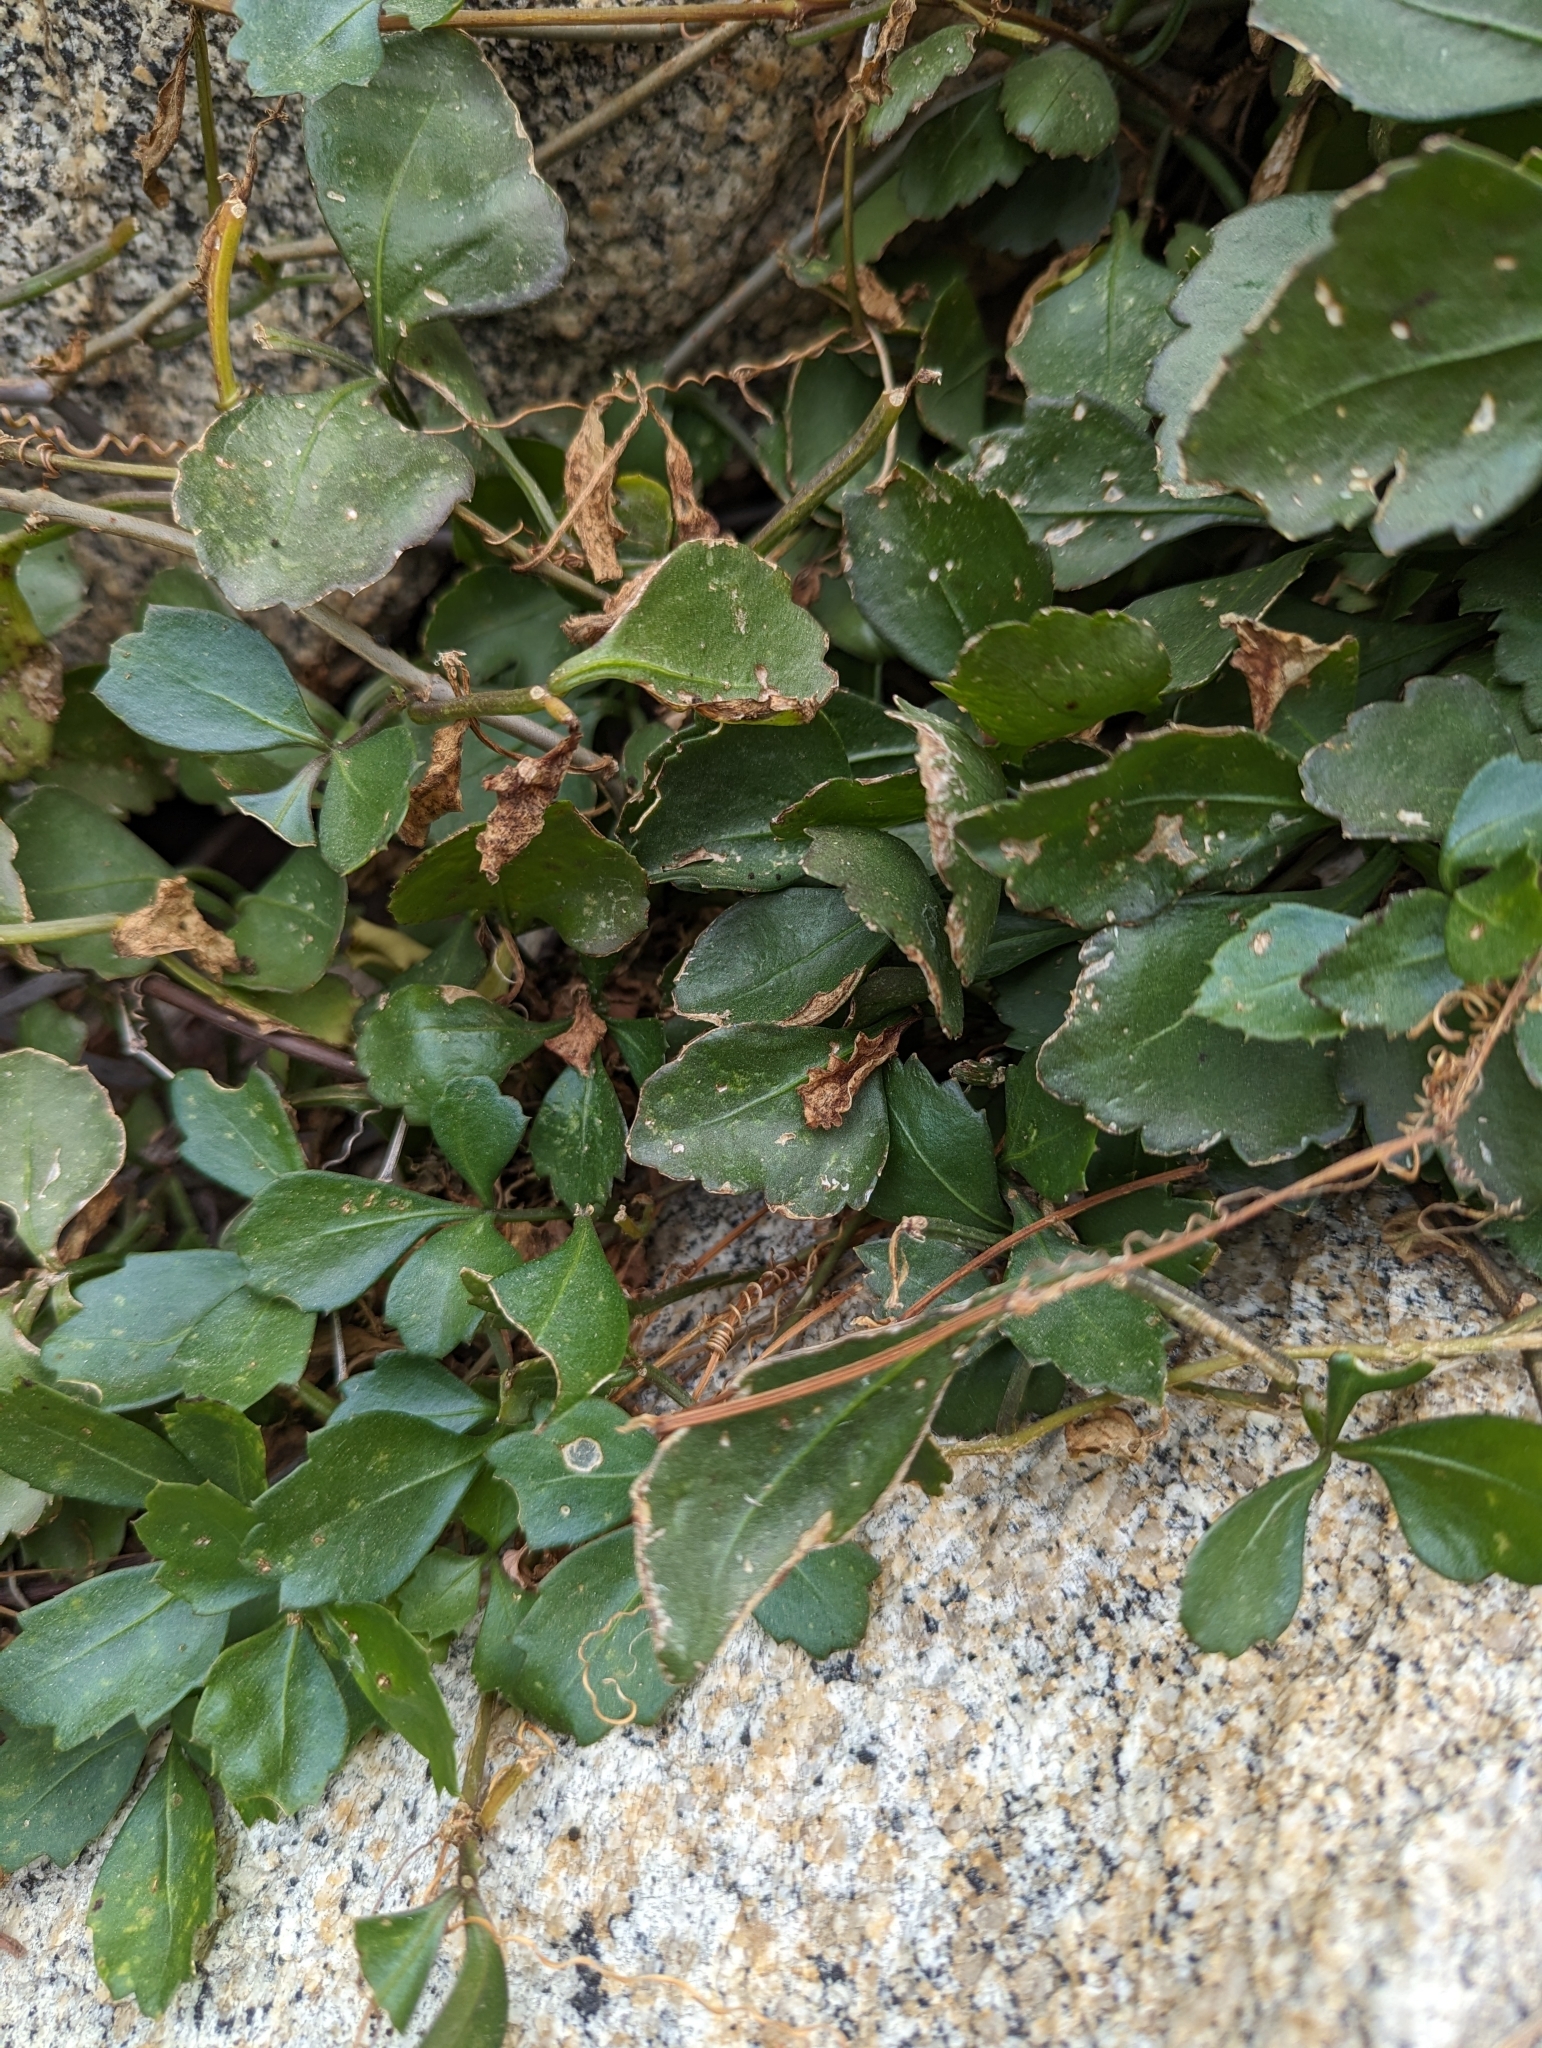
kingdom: Plantae
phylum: Tracheophyta
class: Magnoliopsida
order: Vitales
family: Vitaceae
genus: Cissus
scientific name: Cissus trifoliata
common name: Vine-sorrel
